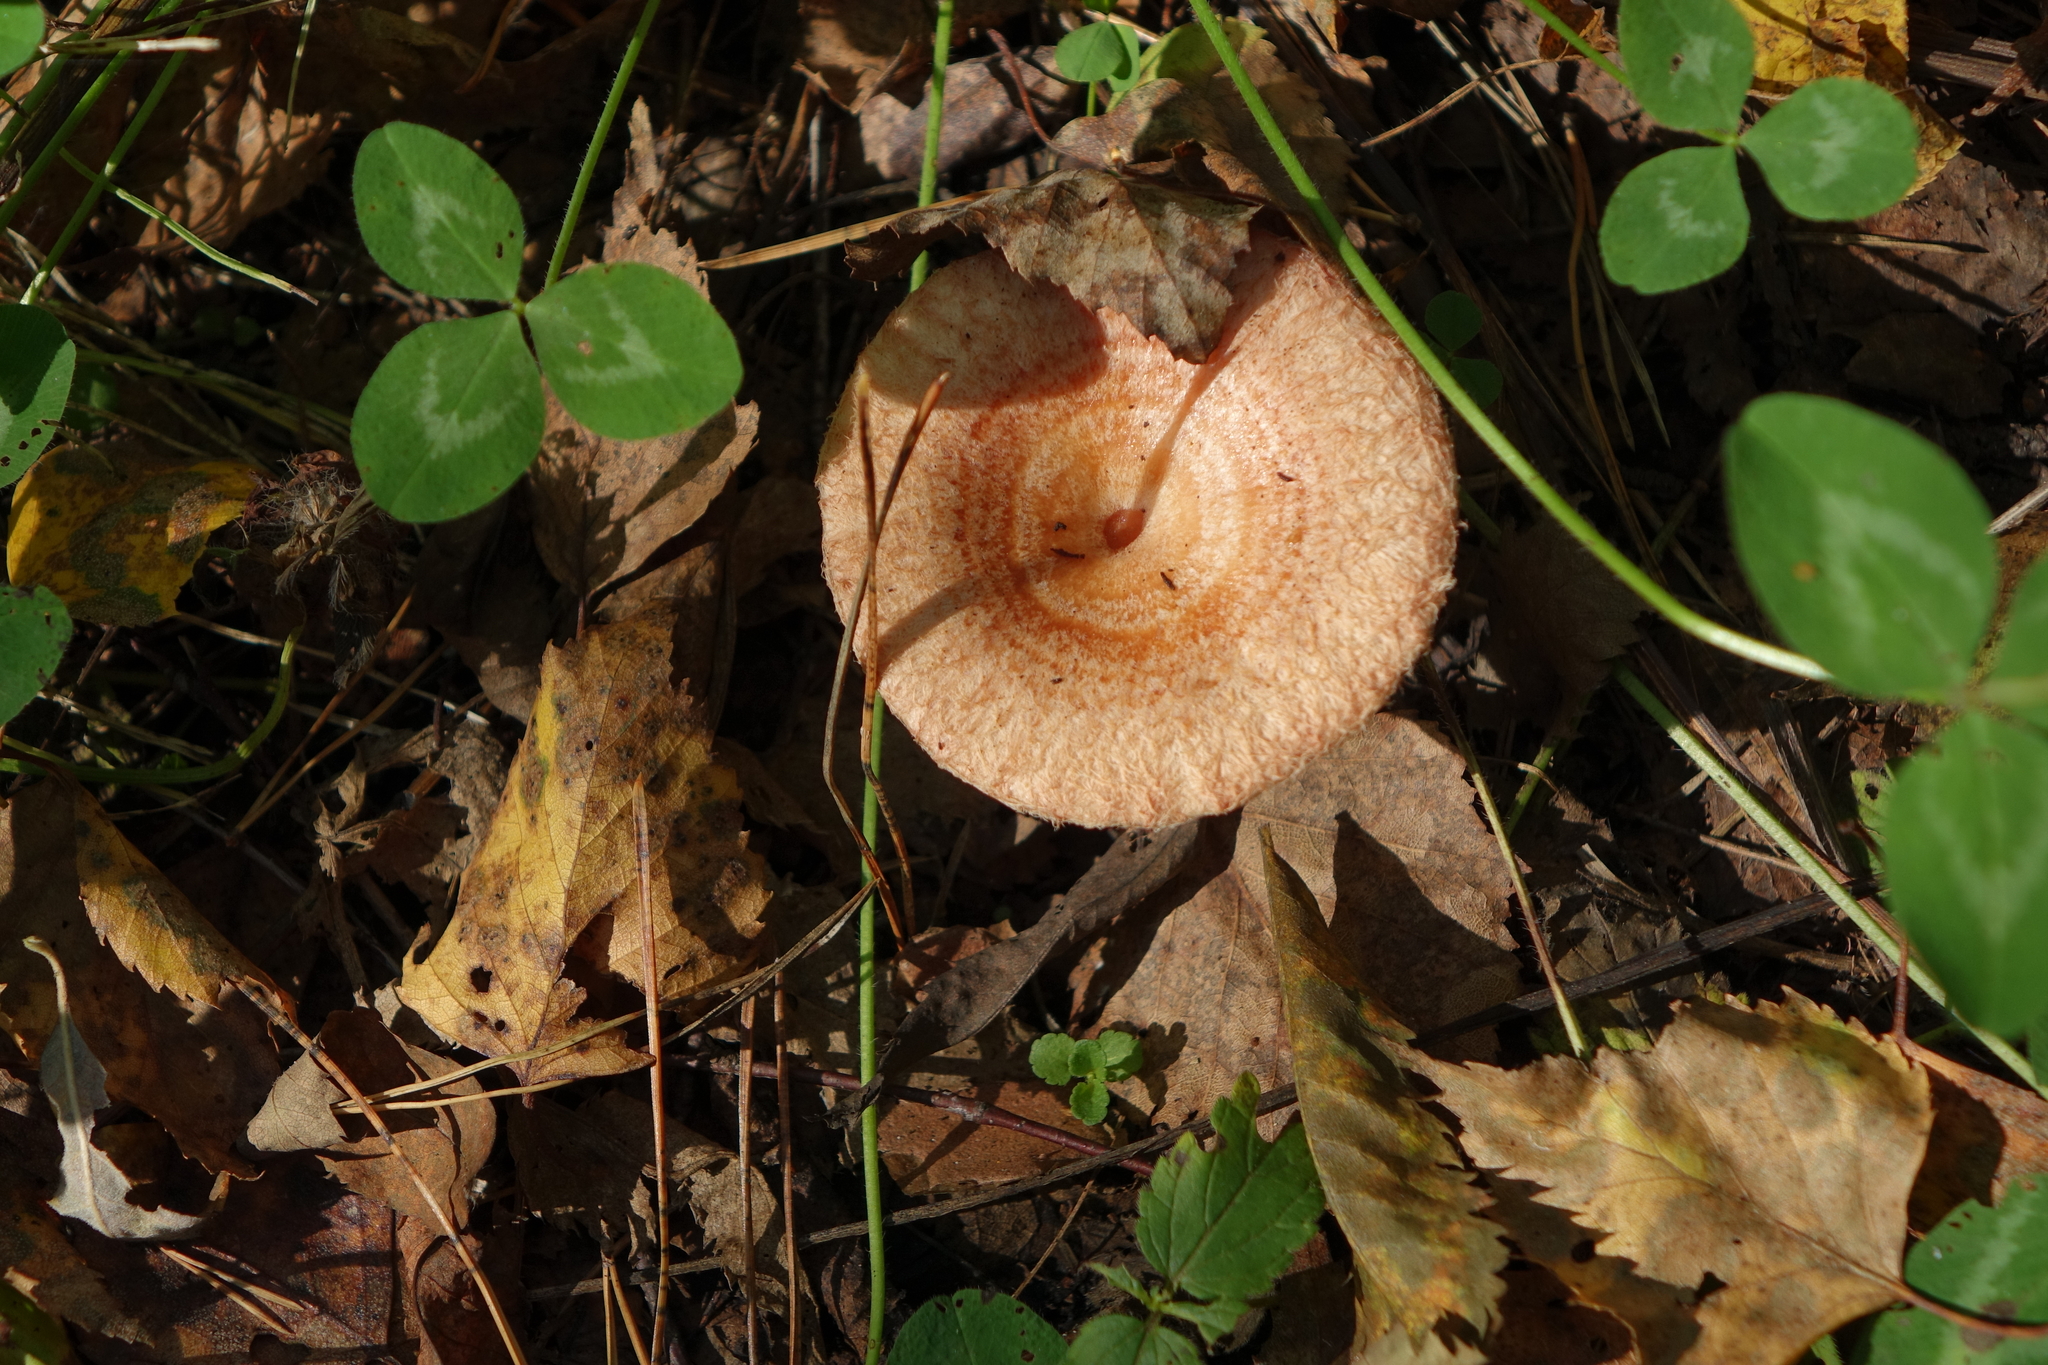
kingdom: Fungi
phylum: Basidiomycota
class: Agaricomycetes
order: Russulales
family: Russulaceae
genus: Lactarius
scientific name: Lactarius torminosus
